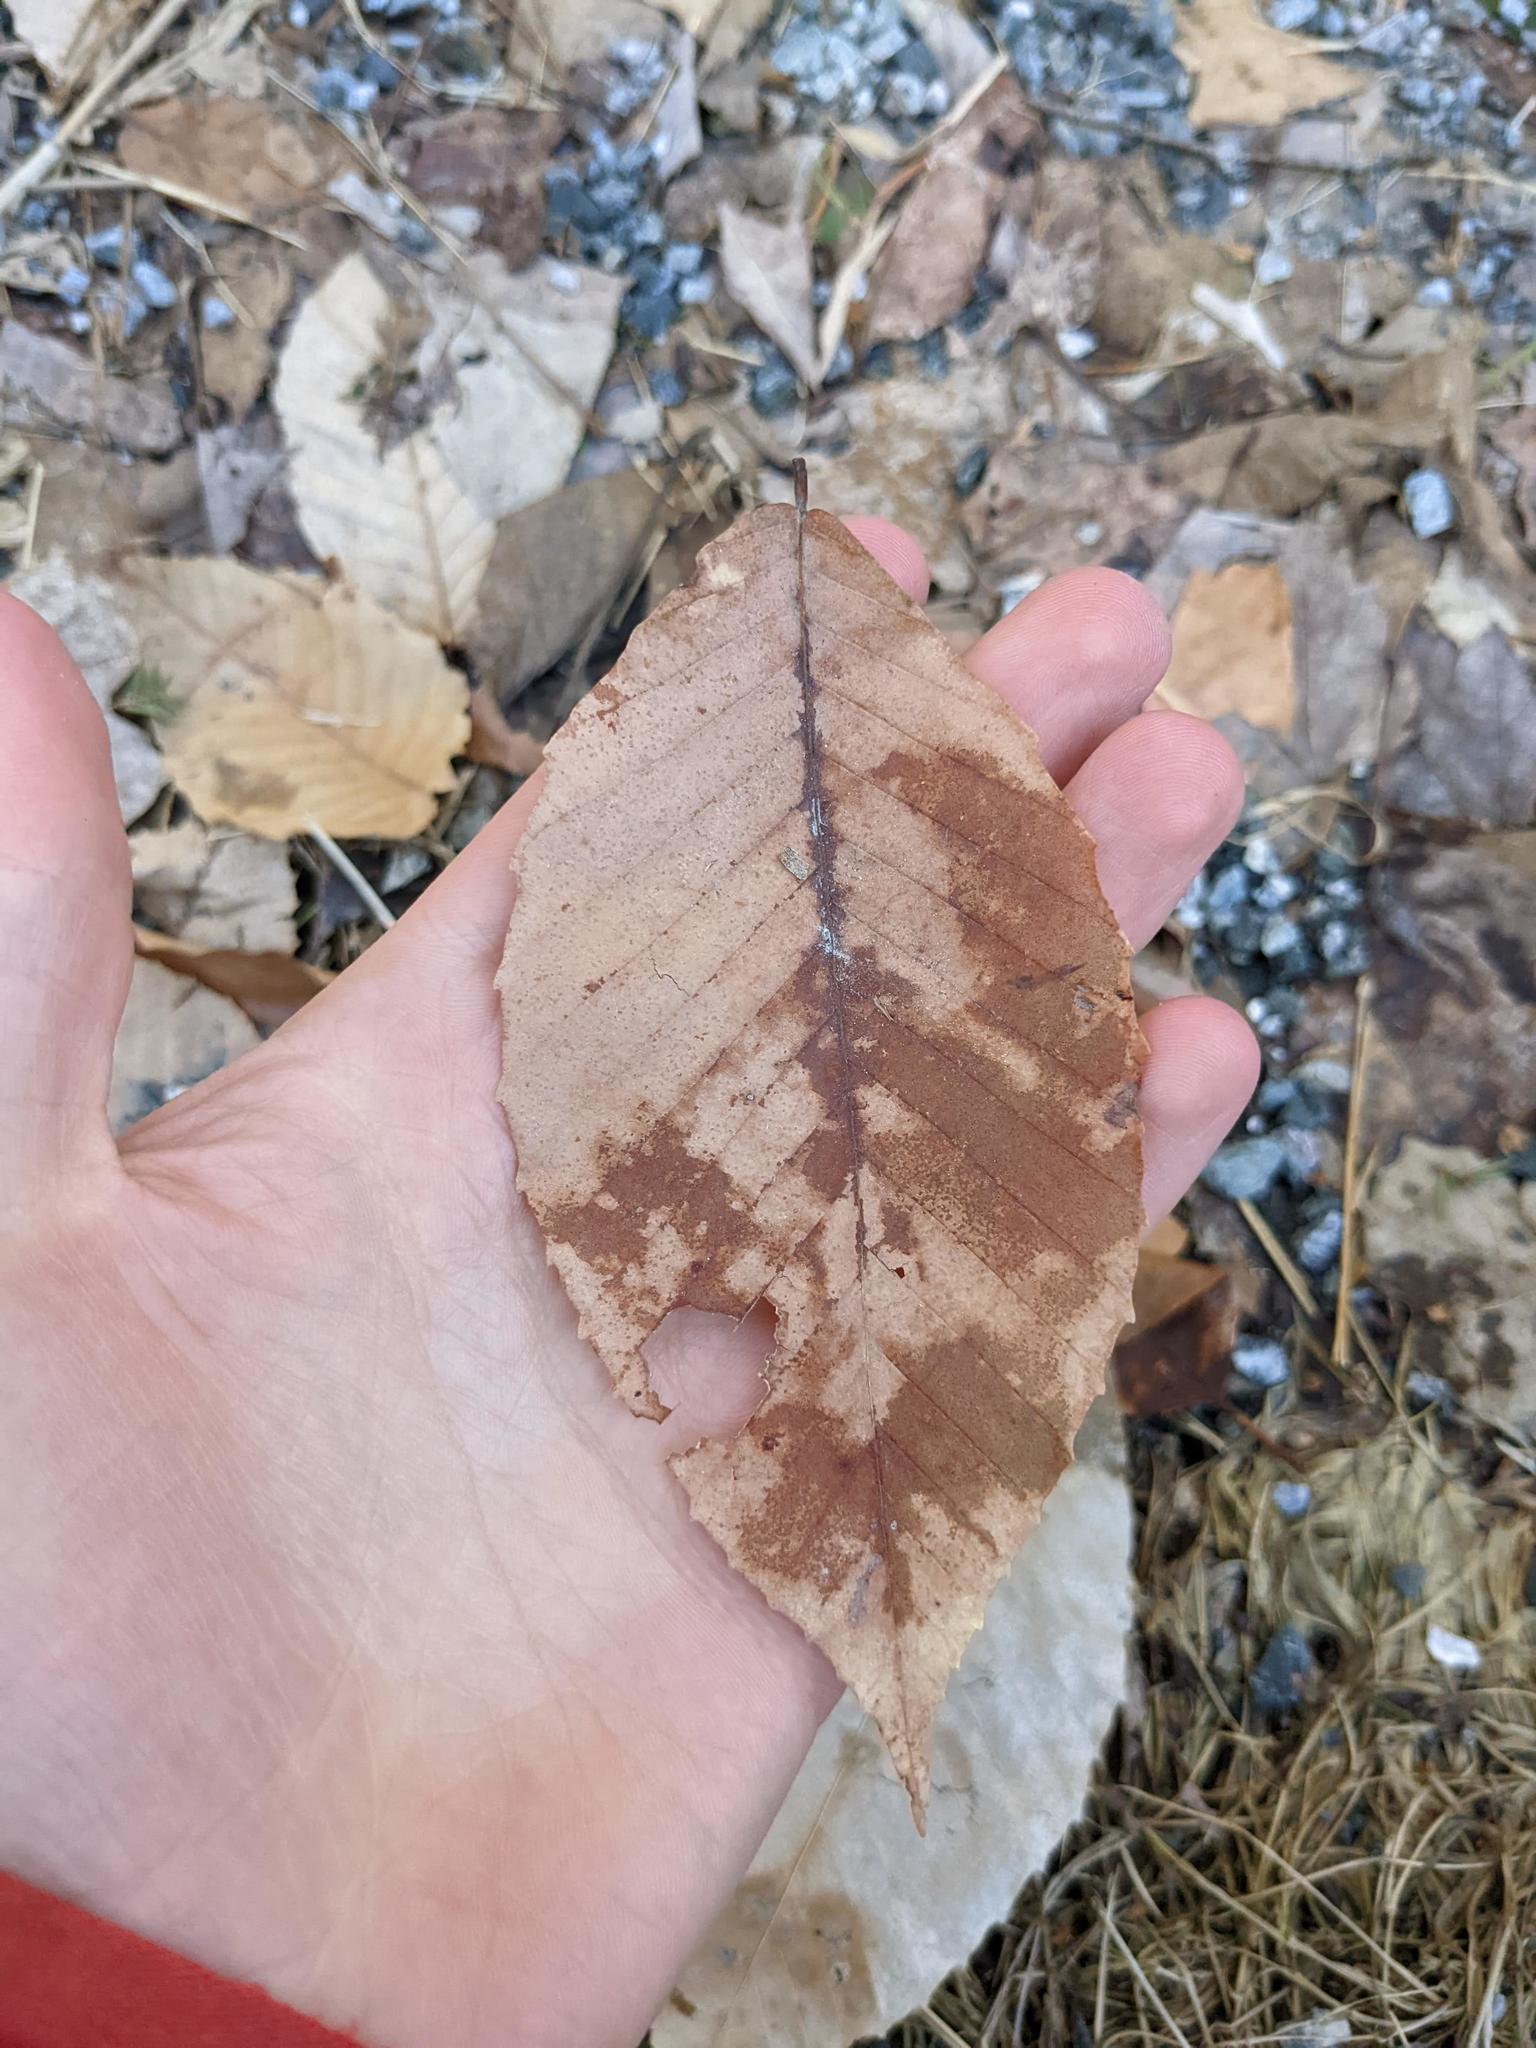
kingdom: Plantae
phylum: Tracheophyta
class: Magnoliopsida
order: Fagales
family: Fagaceae
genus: Fagus
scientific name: Fagus grandifolia
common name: American beech
